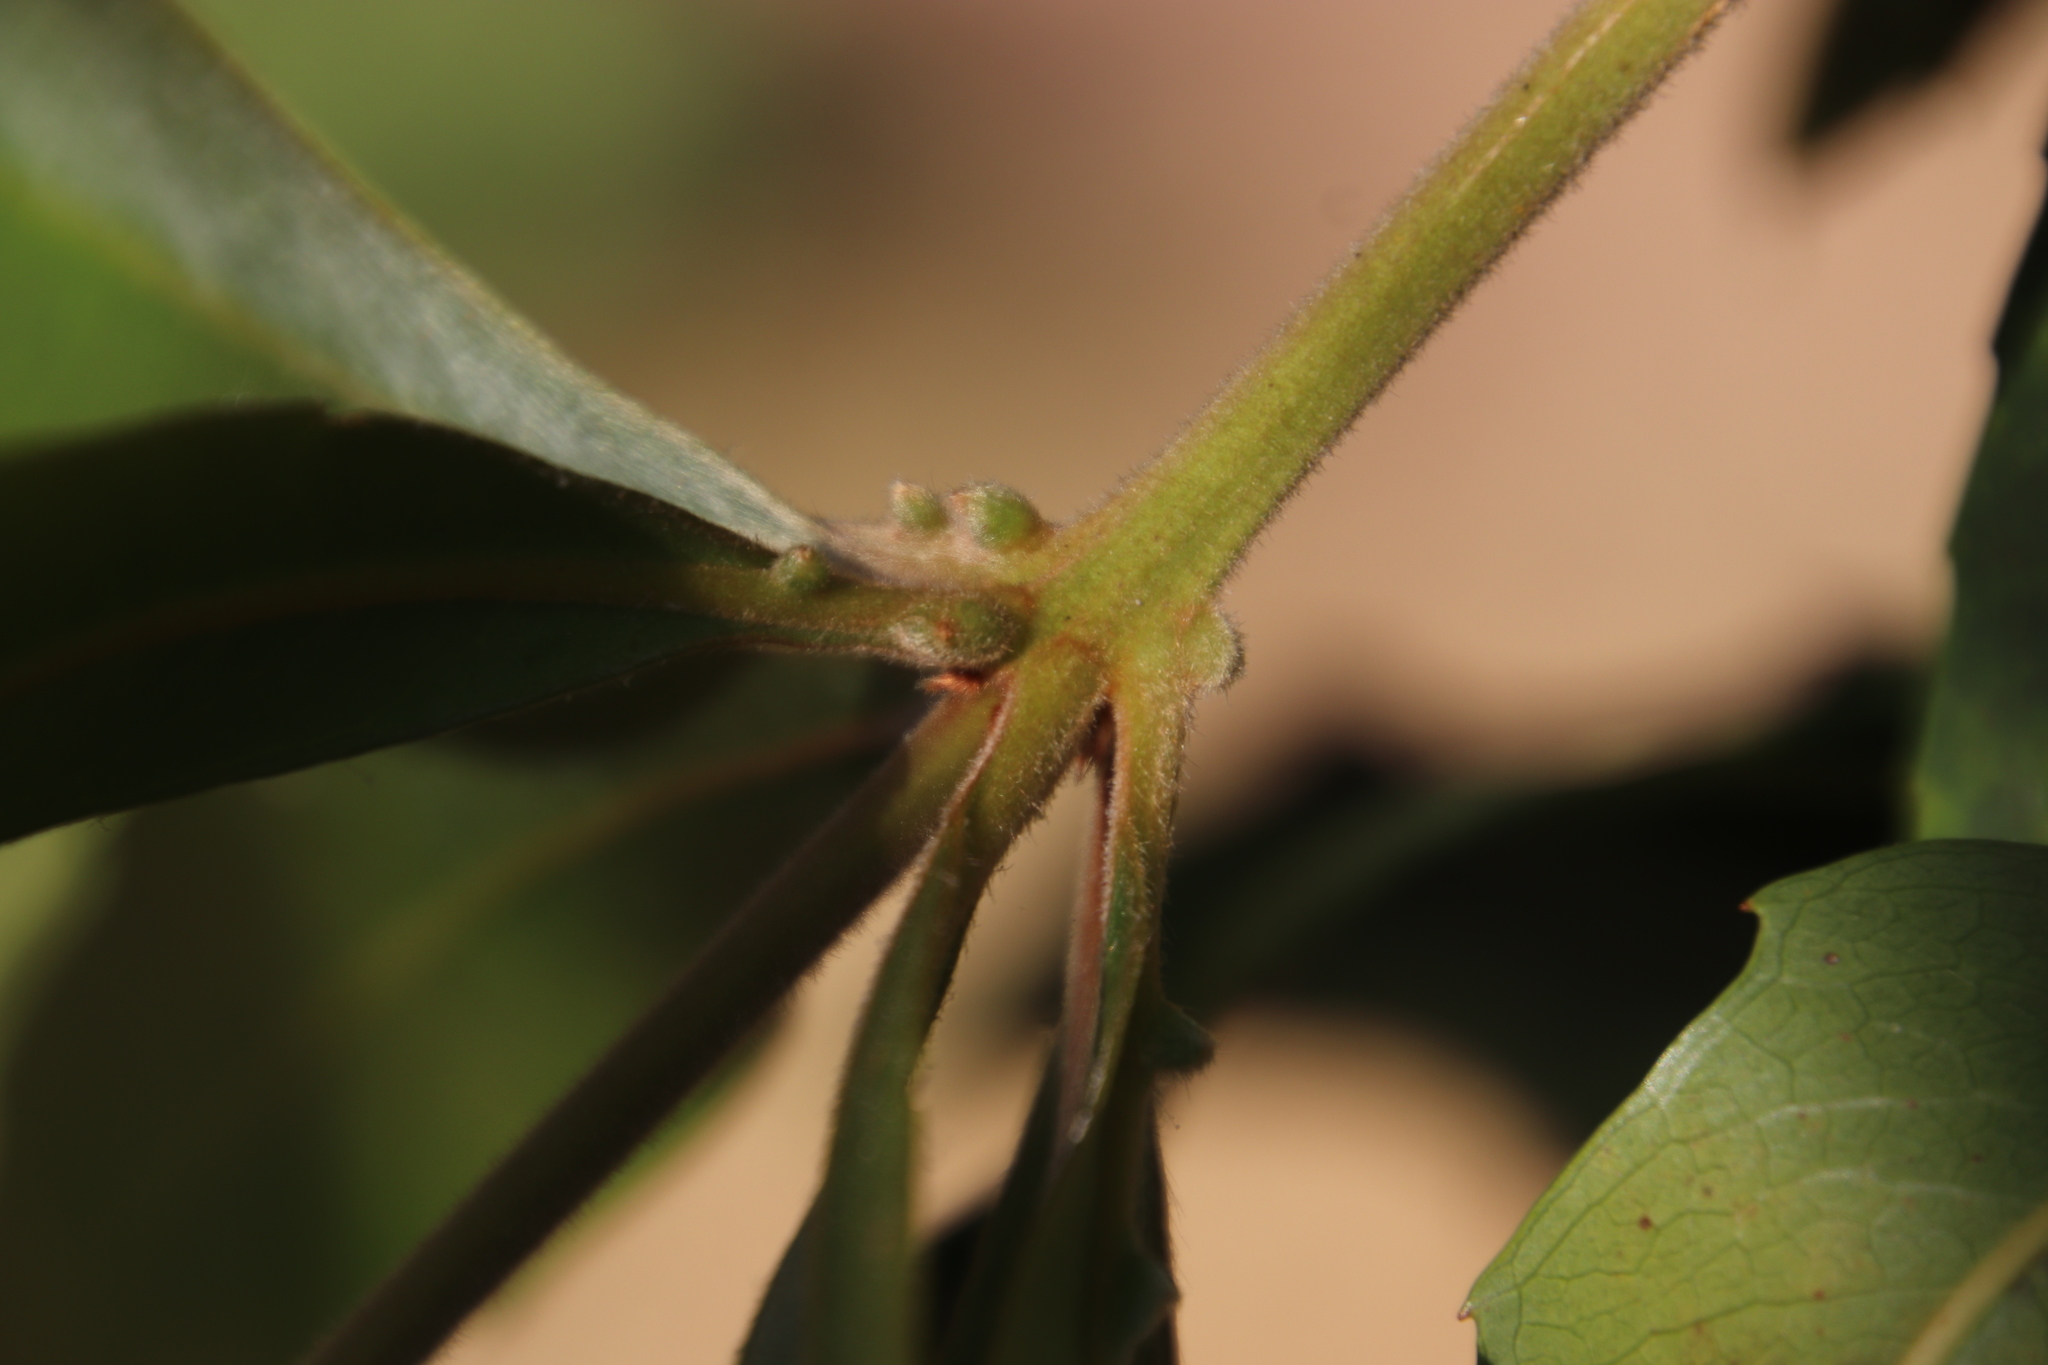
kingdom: Plantae
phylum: Tracheophyta
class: Magnoliopsida
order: Proteales
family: Proteaceae
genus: Brabejum
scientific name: Brabejum stellatifolium
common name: Wild almond
